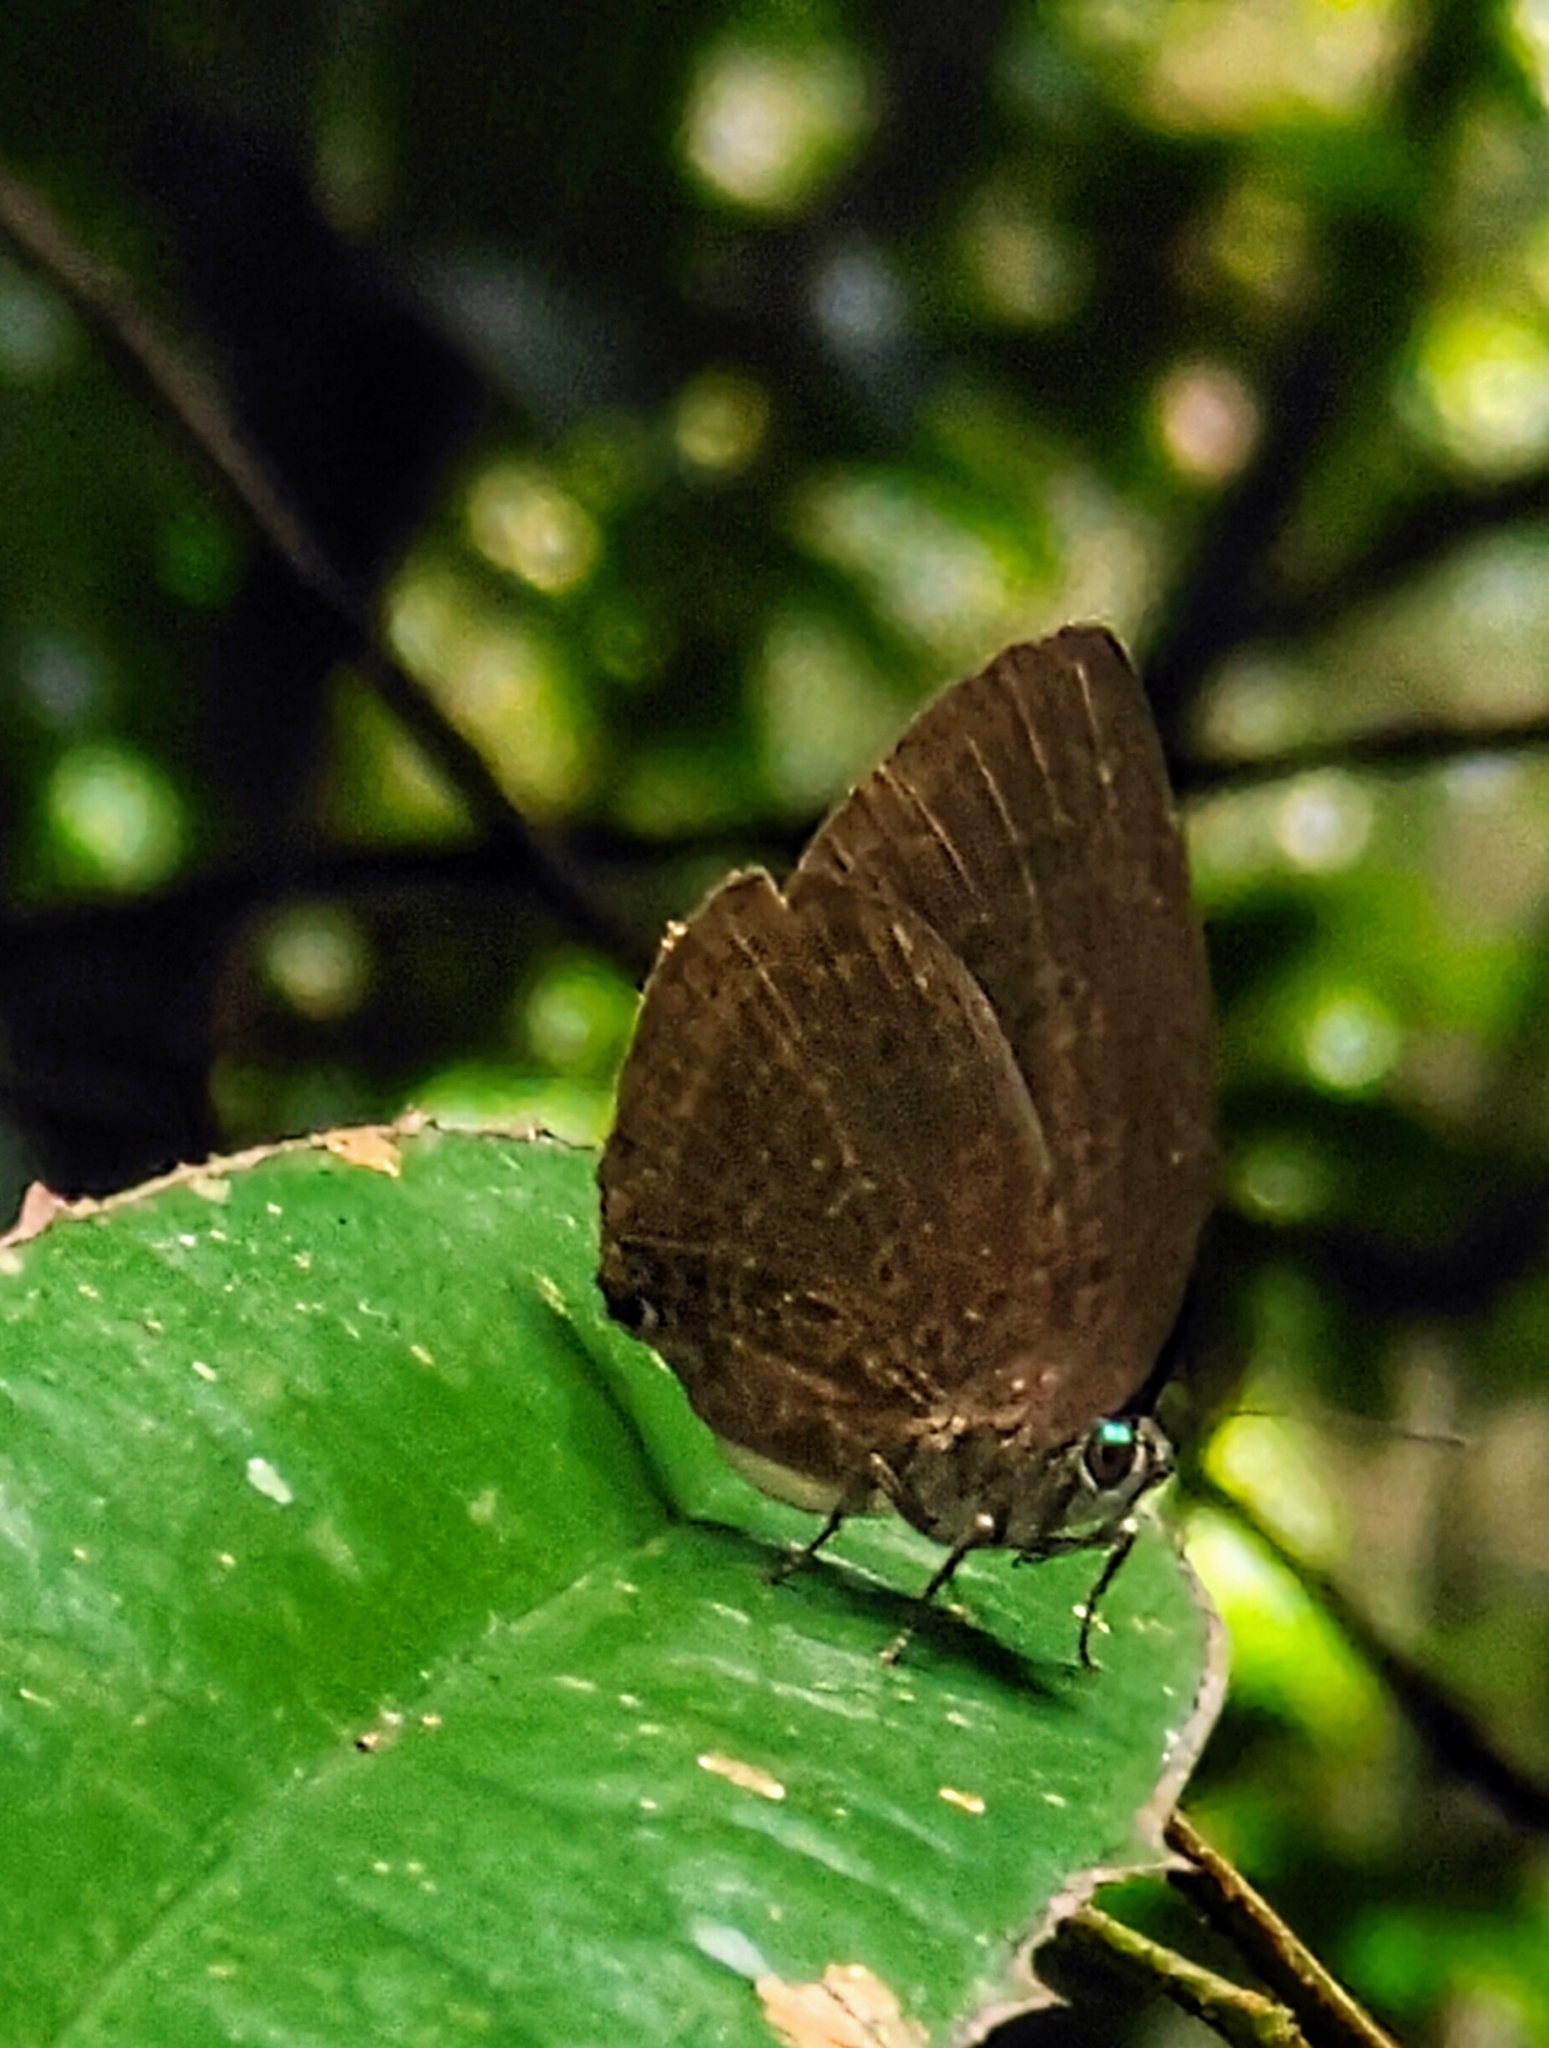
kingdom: Animalia
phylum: Arthropoda
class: Insecta
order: Lepidoptera
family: Lycaenidae
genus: Arhopala
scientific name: Arhopala major
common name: Major yellow oakblue
